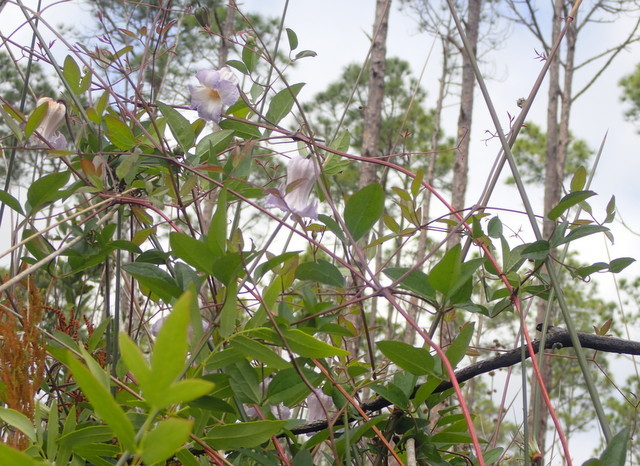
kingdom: Plantae
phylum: Tracheophyta
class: Magnoliopsida
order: Ranunculales
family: Ranunculaceae
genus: Clematis
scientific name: Clematis crispa
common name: Curly clematis
